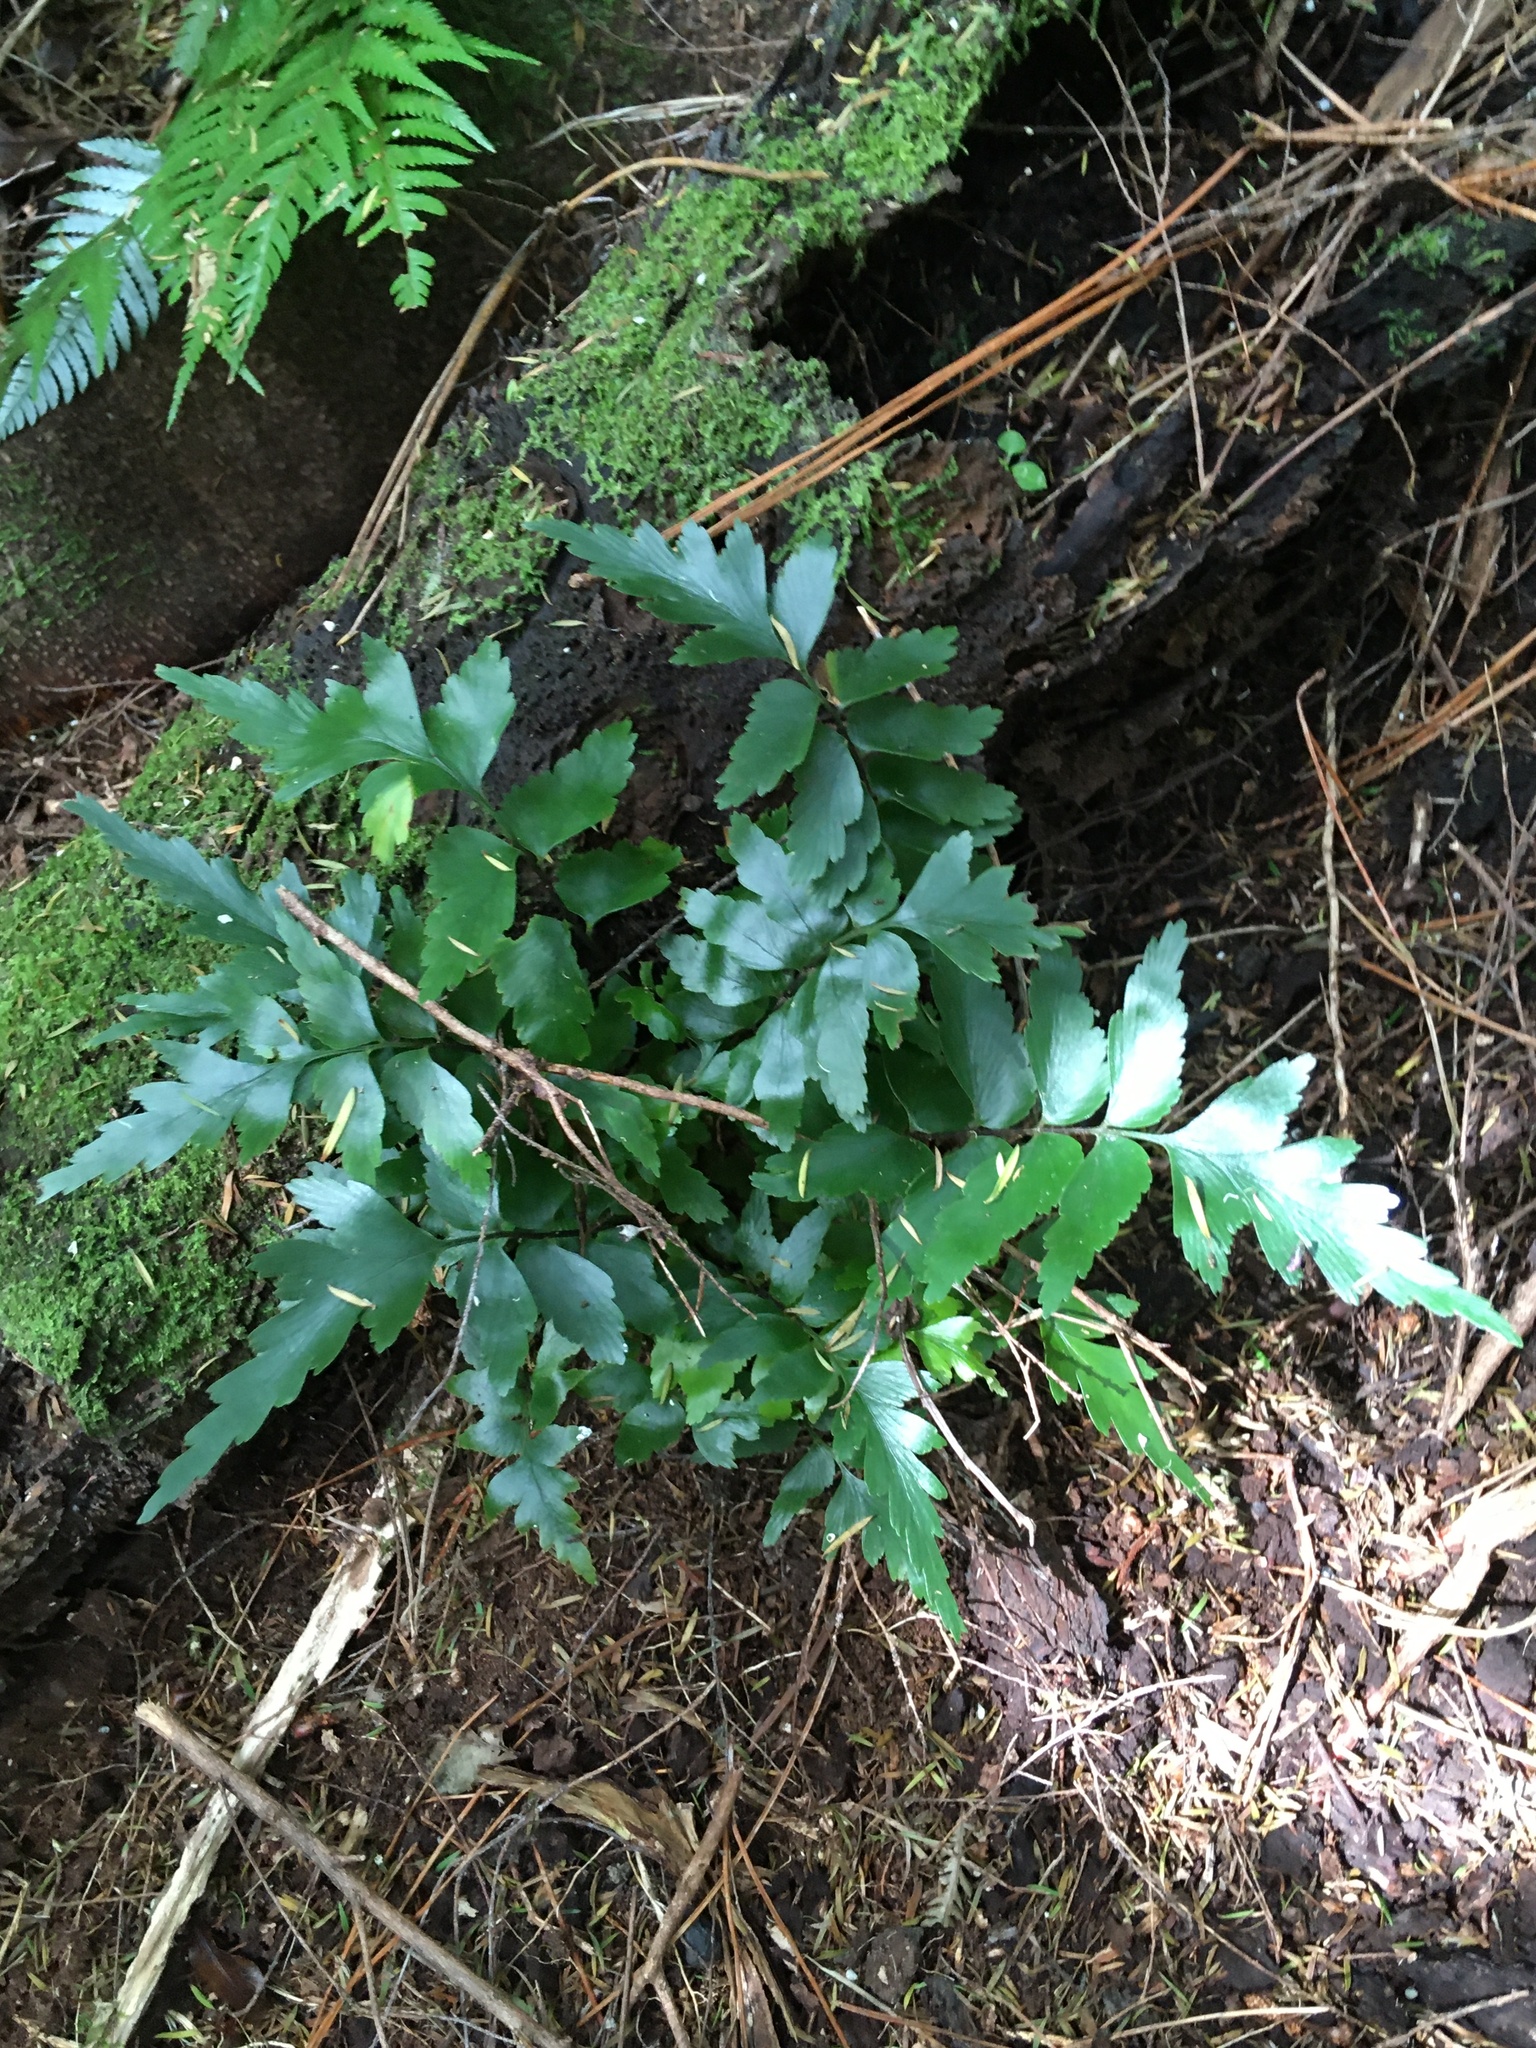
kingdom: Plantae
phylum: Tracheophyta
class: Polypodiopsida
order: Polypodiales
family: Aspleniaceae
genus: Asplenium
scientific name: Asplenium polyodon
